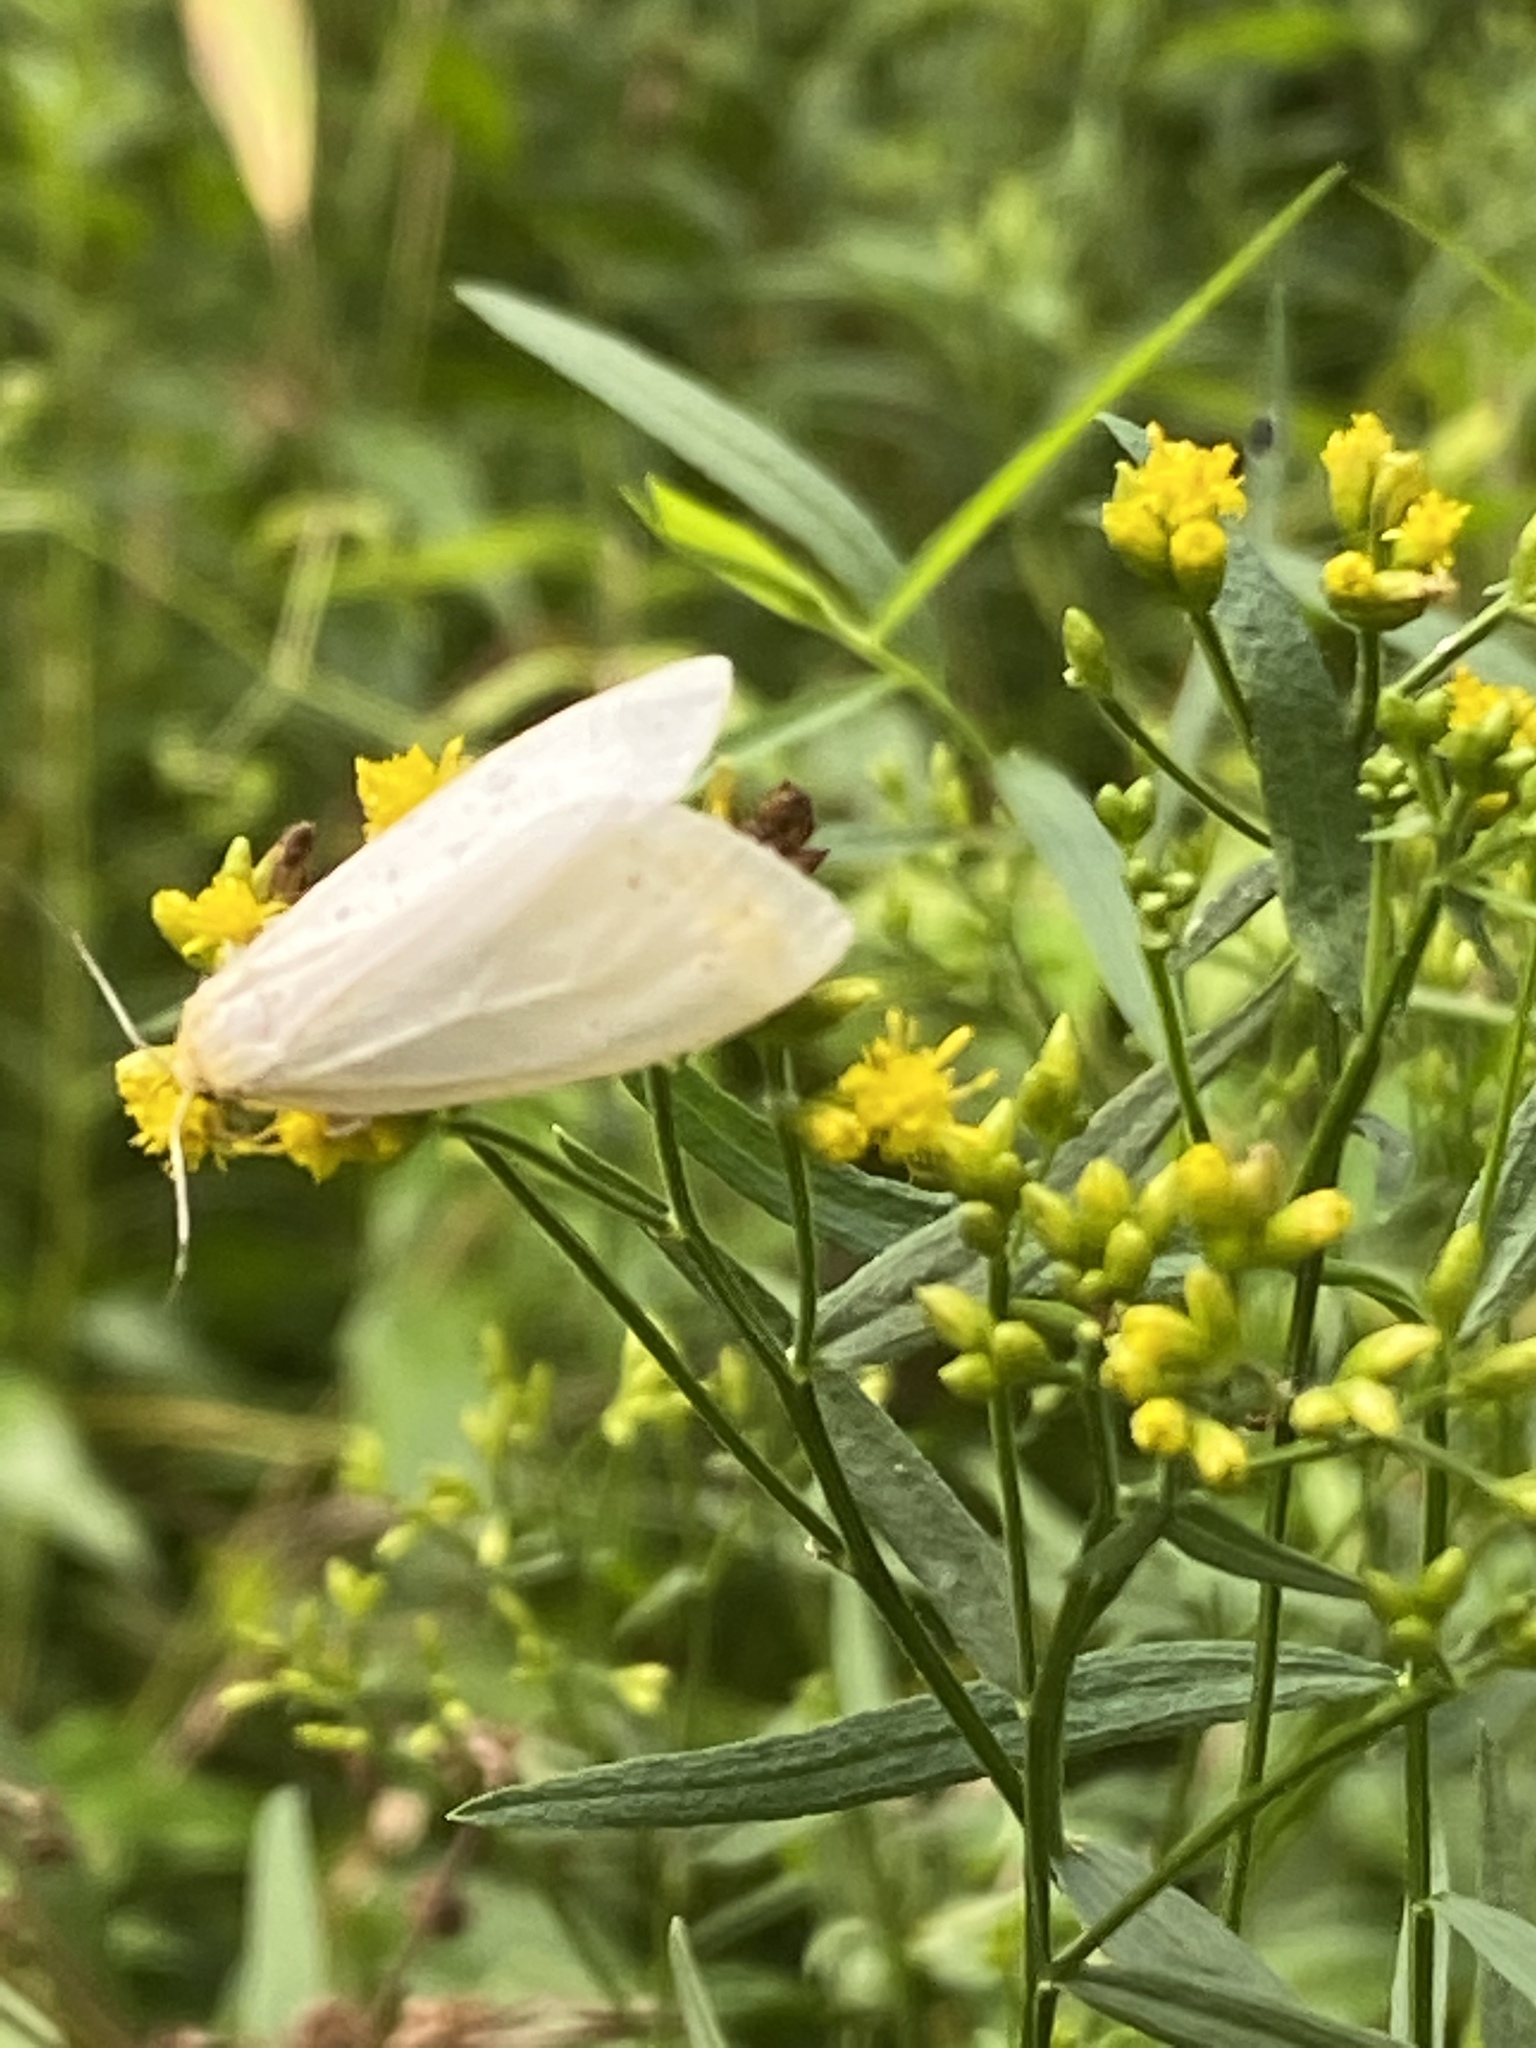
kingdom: Animalia
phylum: Arthropoda
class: Insecta
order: Lepidoptera
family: Erebidae
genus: Cycnia
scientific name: Cycnia tenera
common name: Delicate cycnia moth
